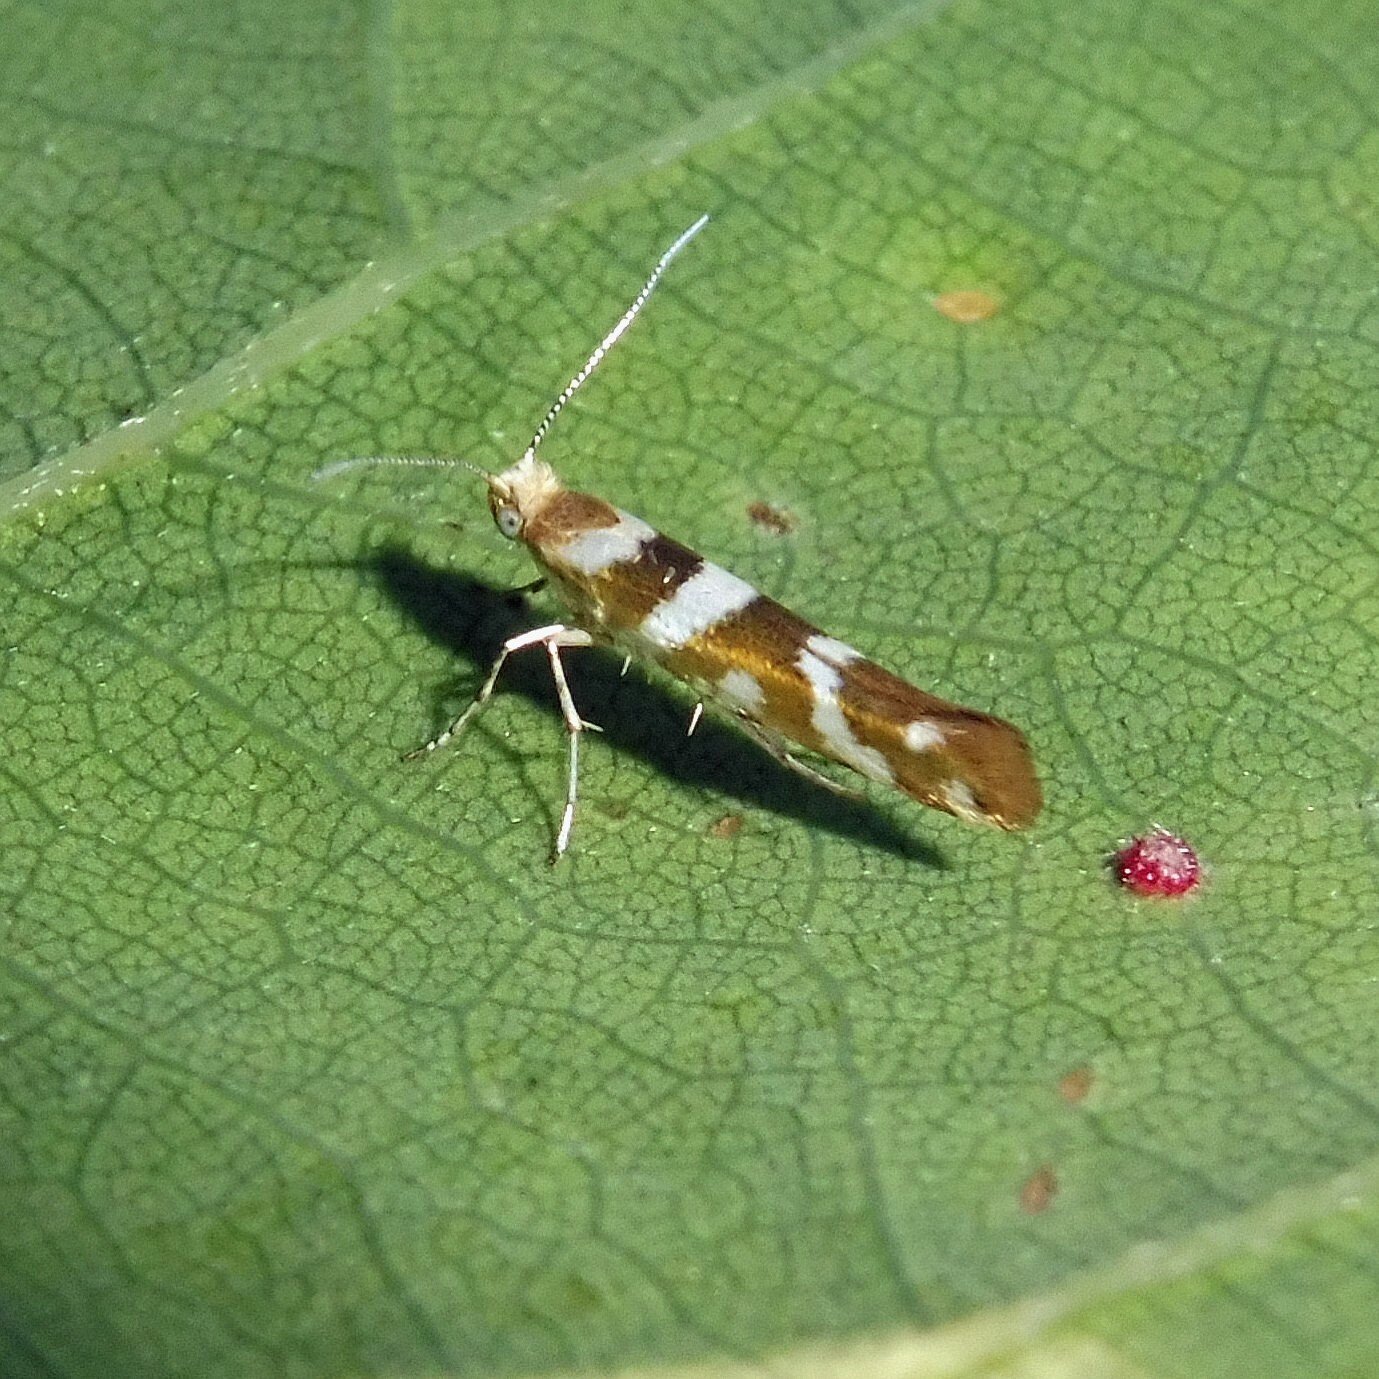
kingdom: Animalia
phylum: Arthropoda
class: Insecta
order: Lepidoptera
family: Argyresthiidae
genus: Argyresthia
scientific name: Argyresthia goedartella
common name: Golden argent
